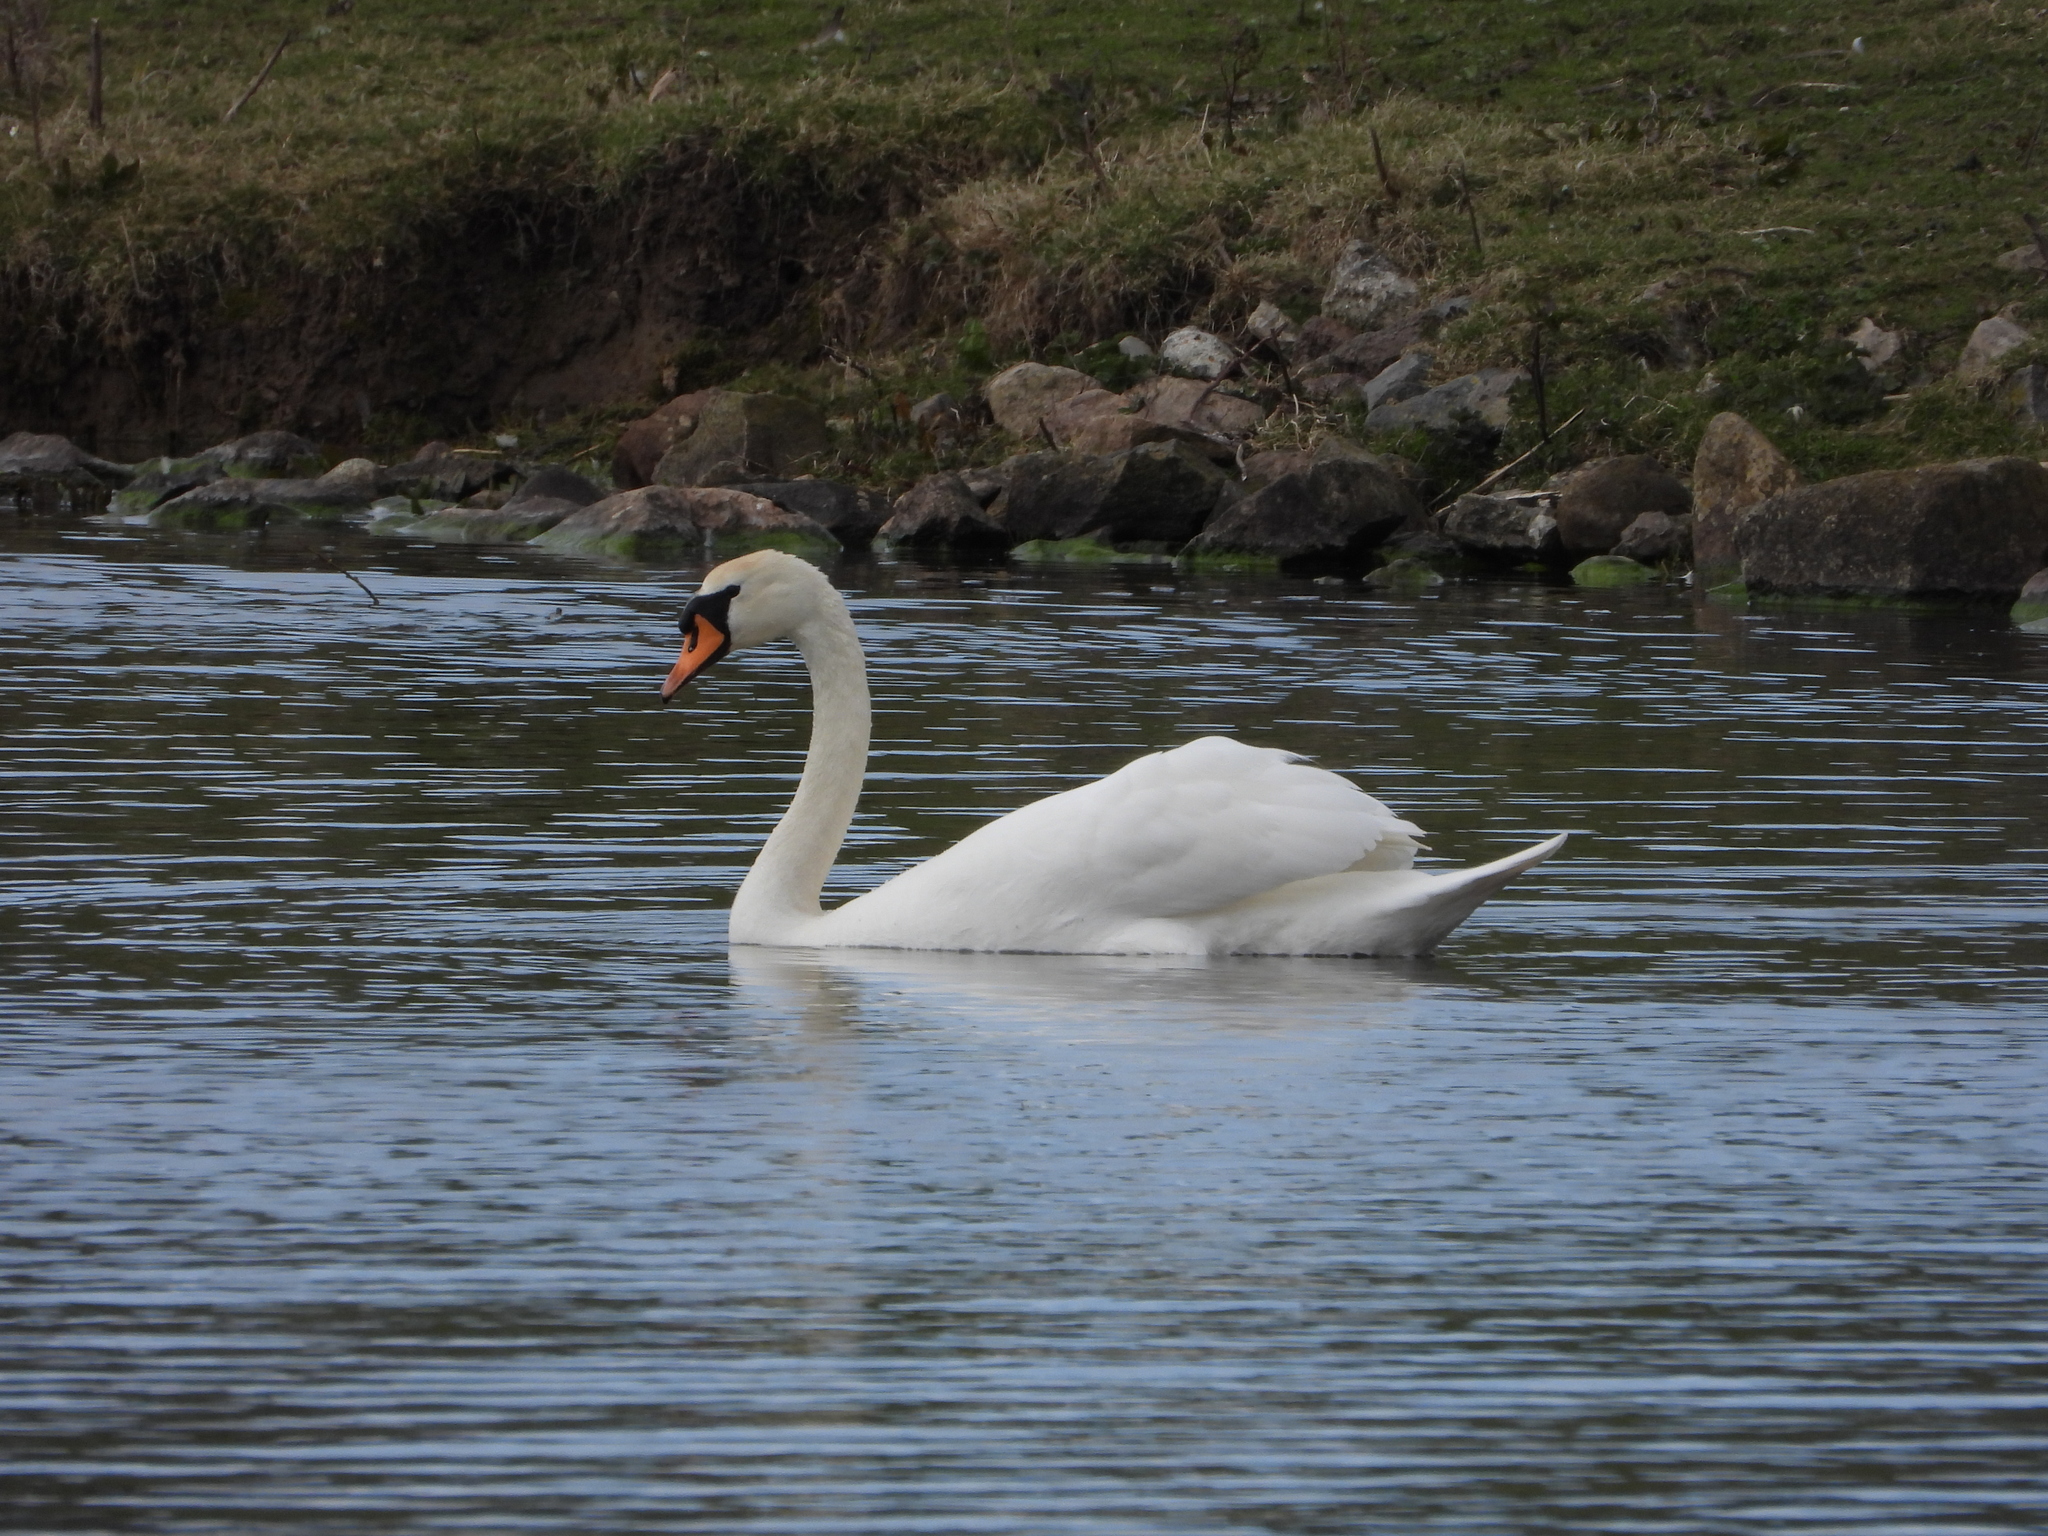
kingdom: Animalia
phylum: Chordata
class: Aves
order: Anseriformes
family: Anatidae
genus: Cygnus
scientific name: Cygnus olor
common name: Mute swan
